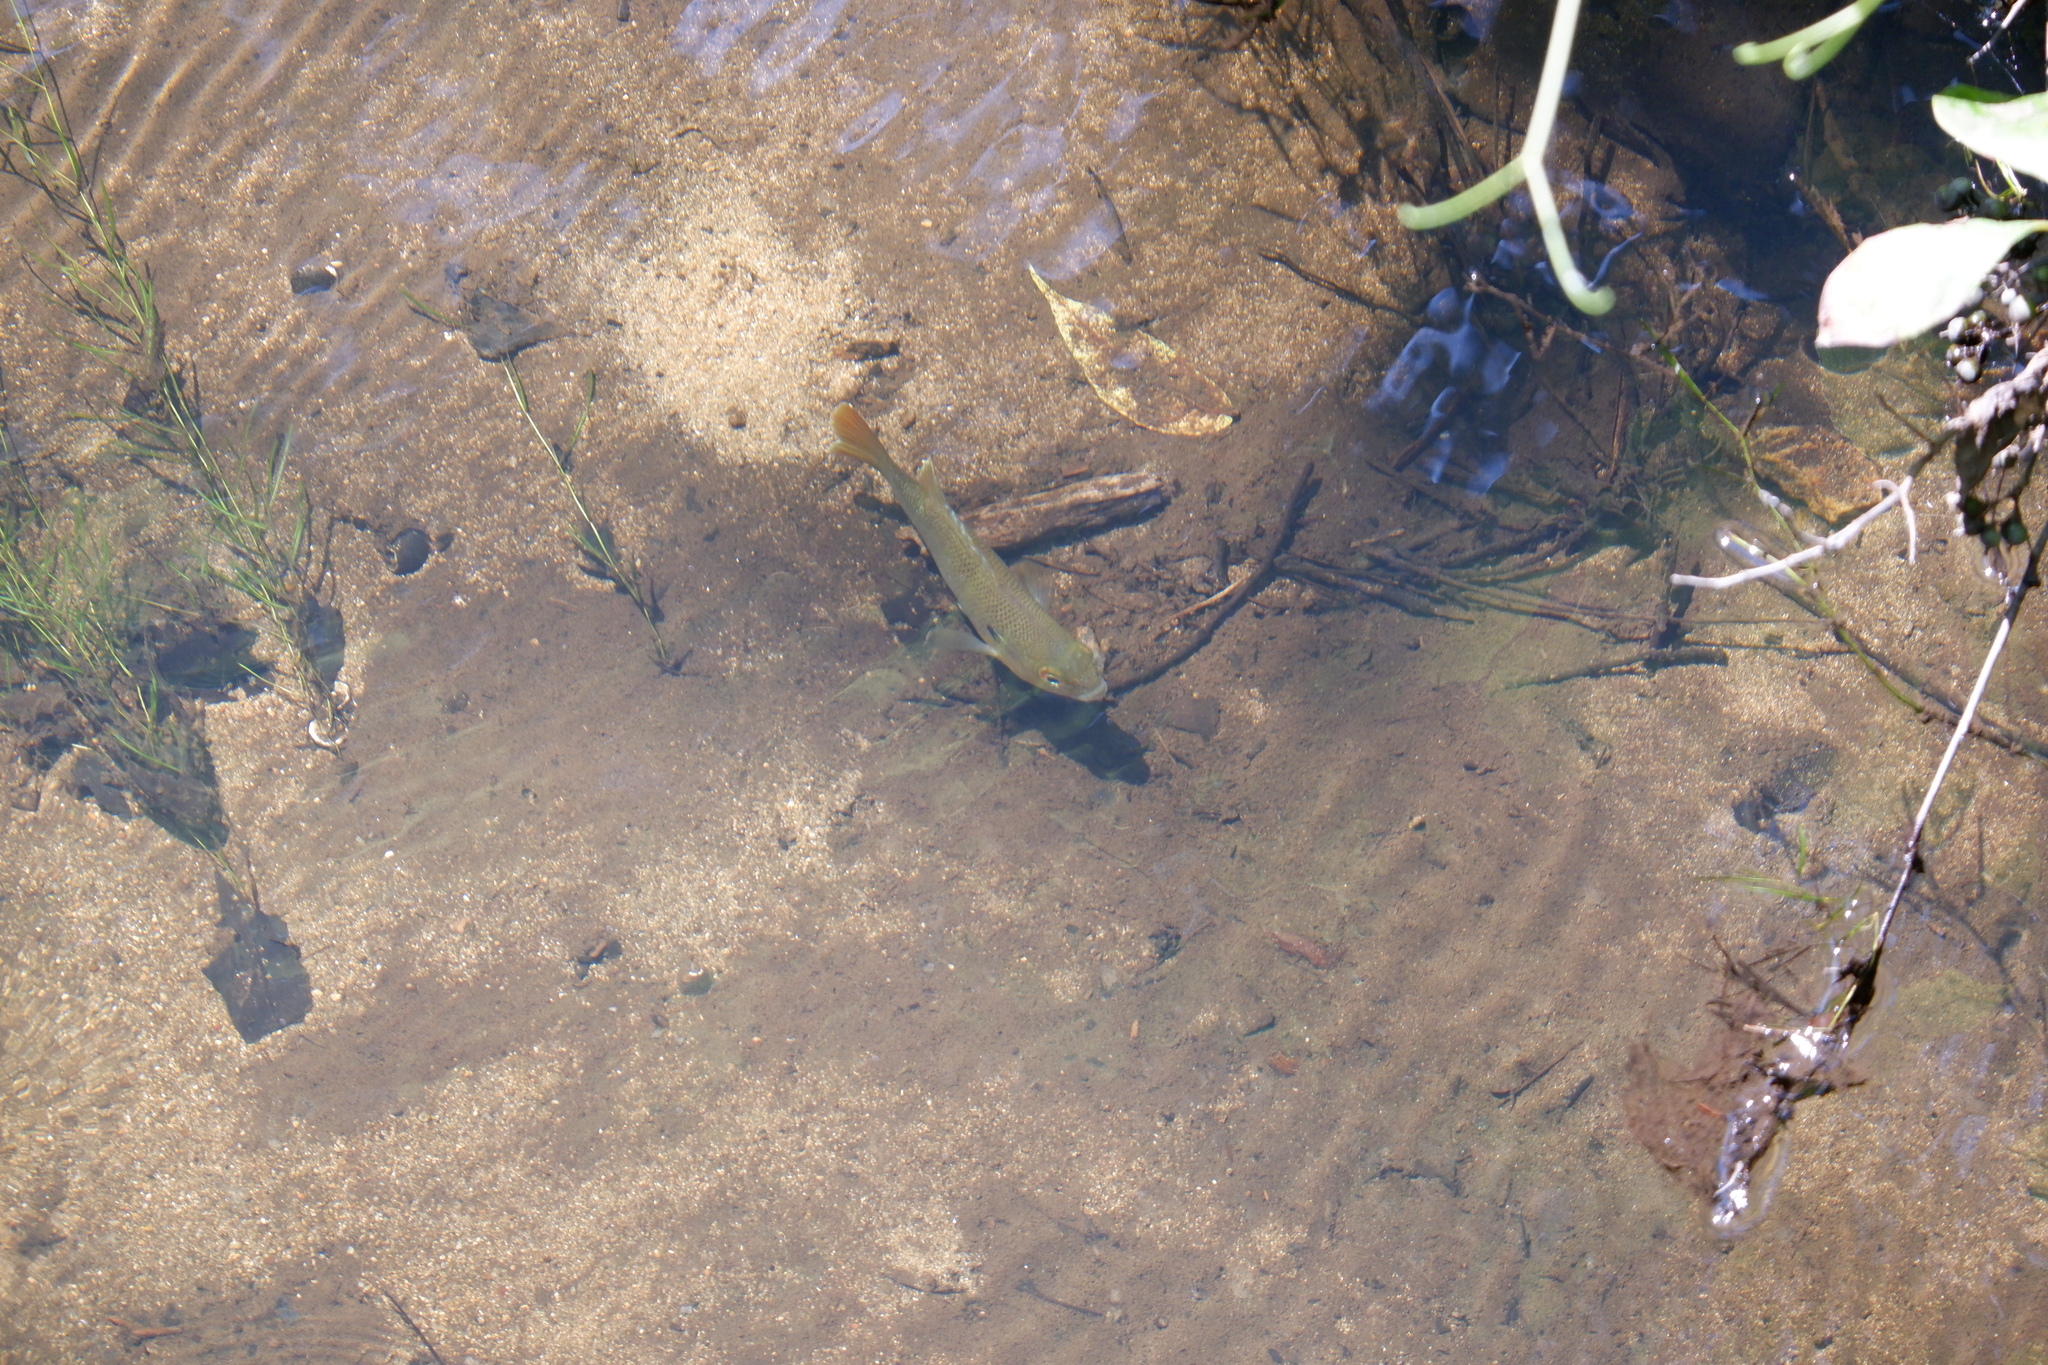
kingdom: Animalia
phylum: Chordata
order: Perciformes
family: Centrarchidae
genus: Lepomis
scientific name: Lepomis auritus
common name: Redbreast sunfish
